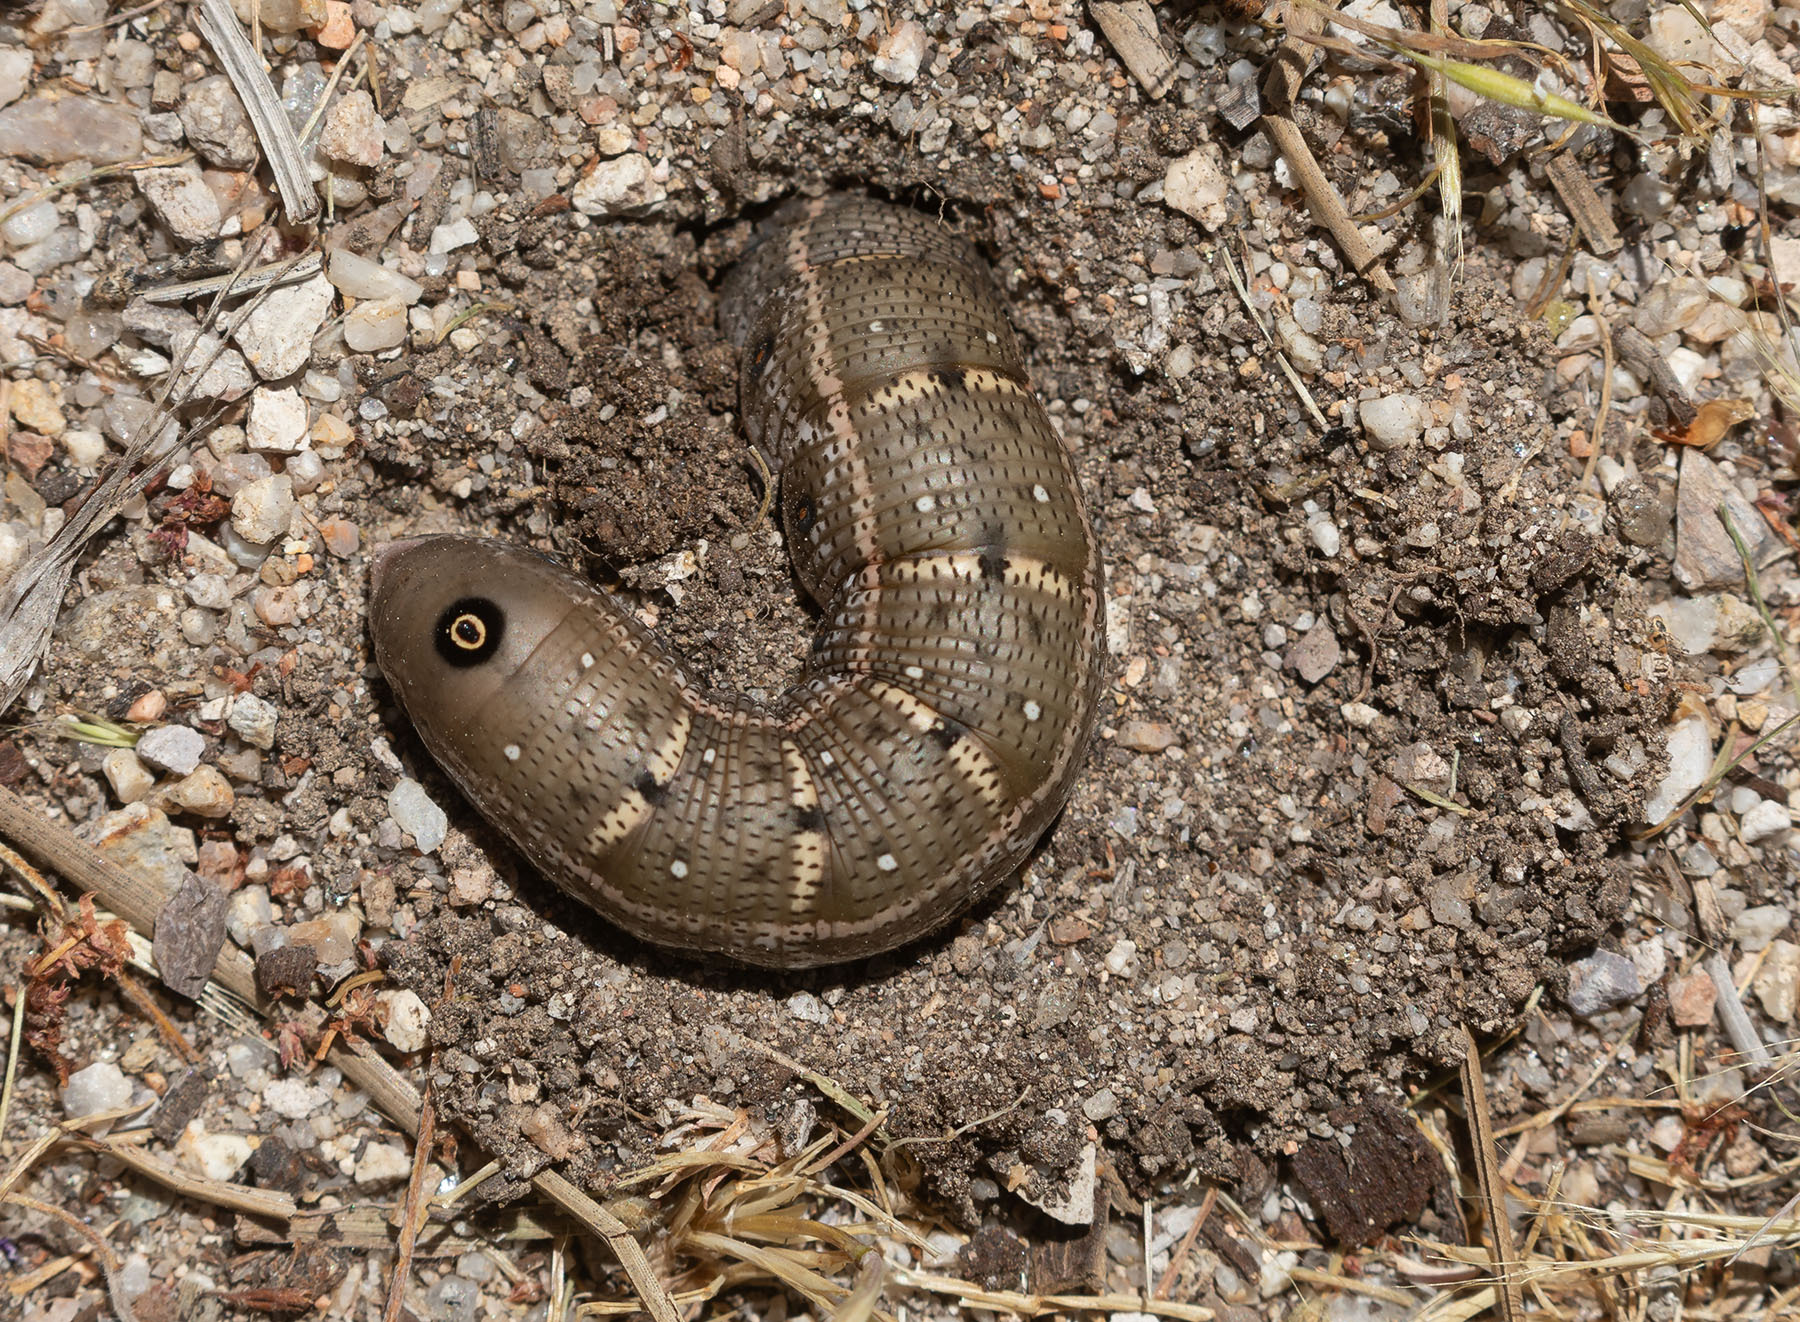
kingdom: Animalia
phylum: Arthropoda
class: Insecta
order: Lepidoptera
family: Sphingidae
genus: Proserpinus
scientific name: Proserpinus lucidus
